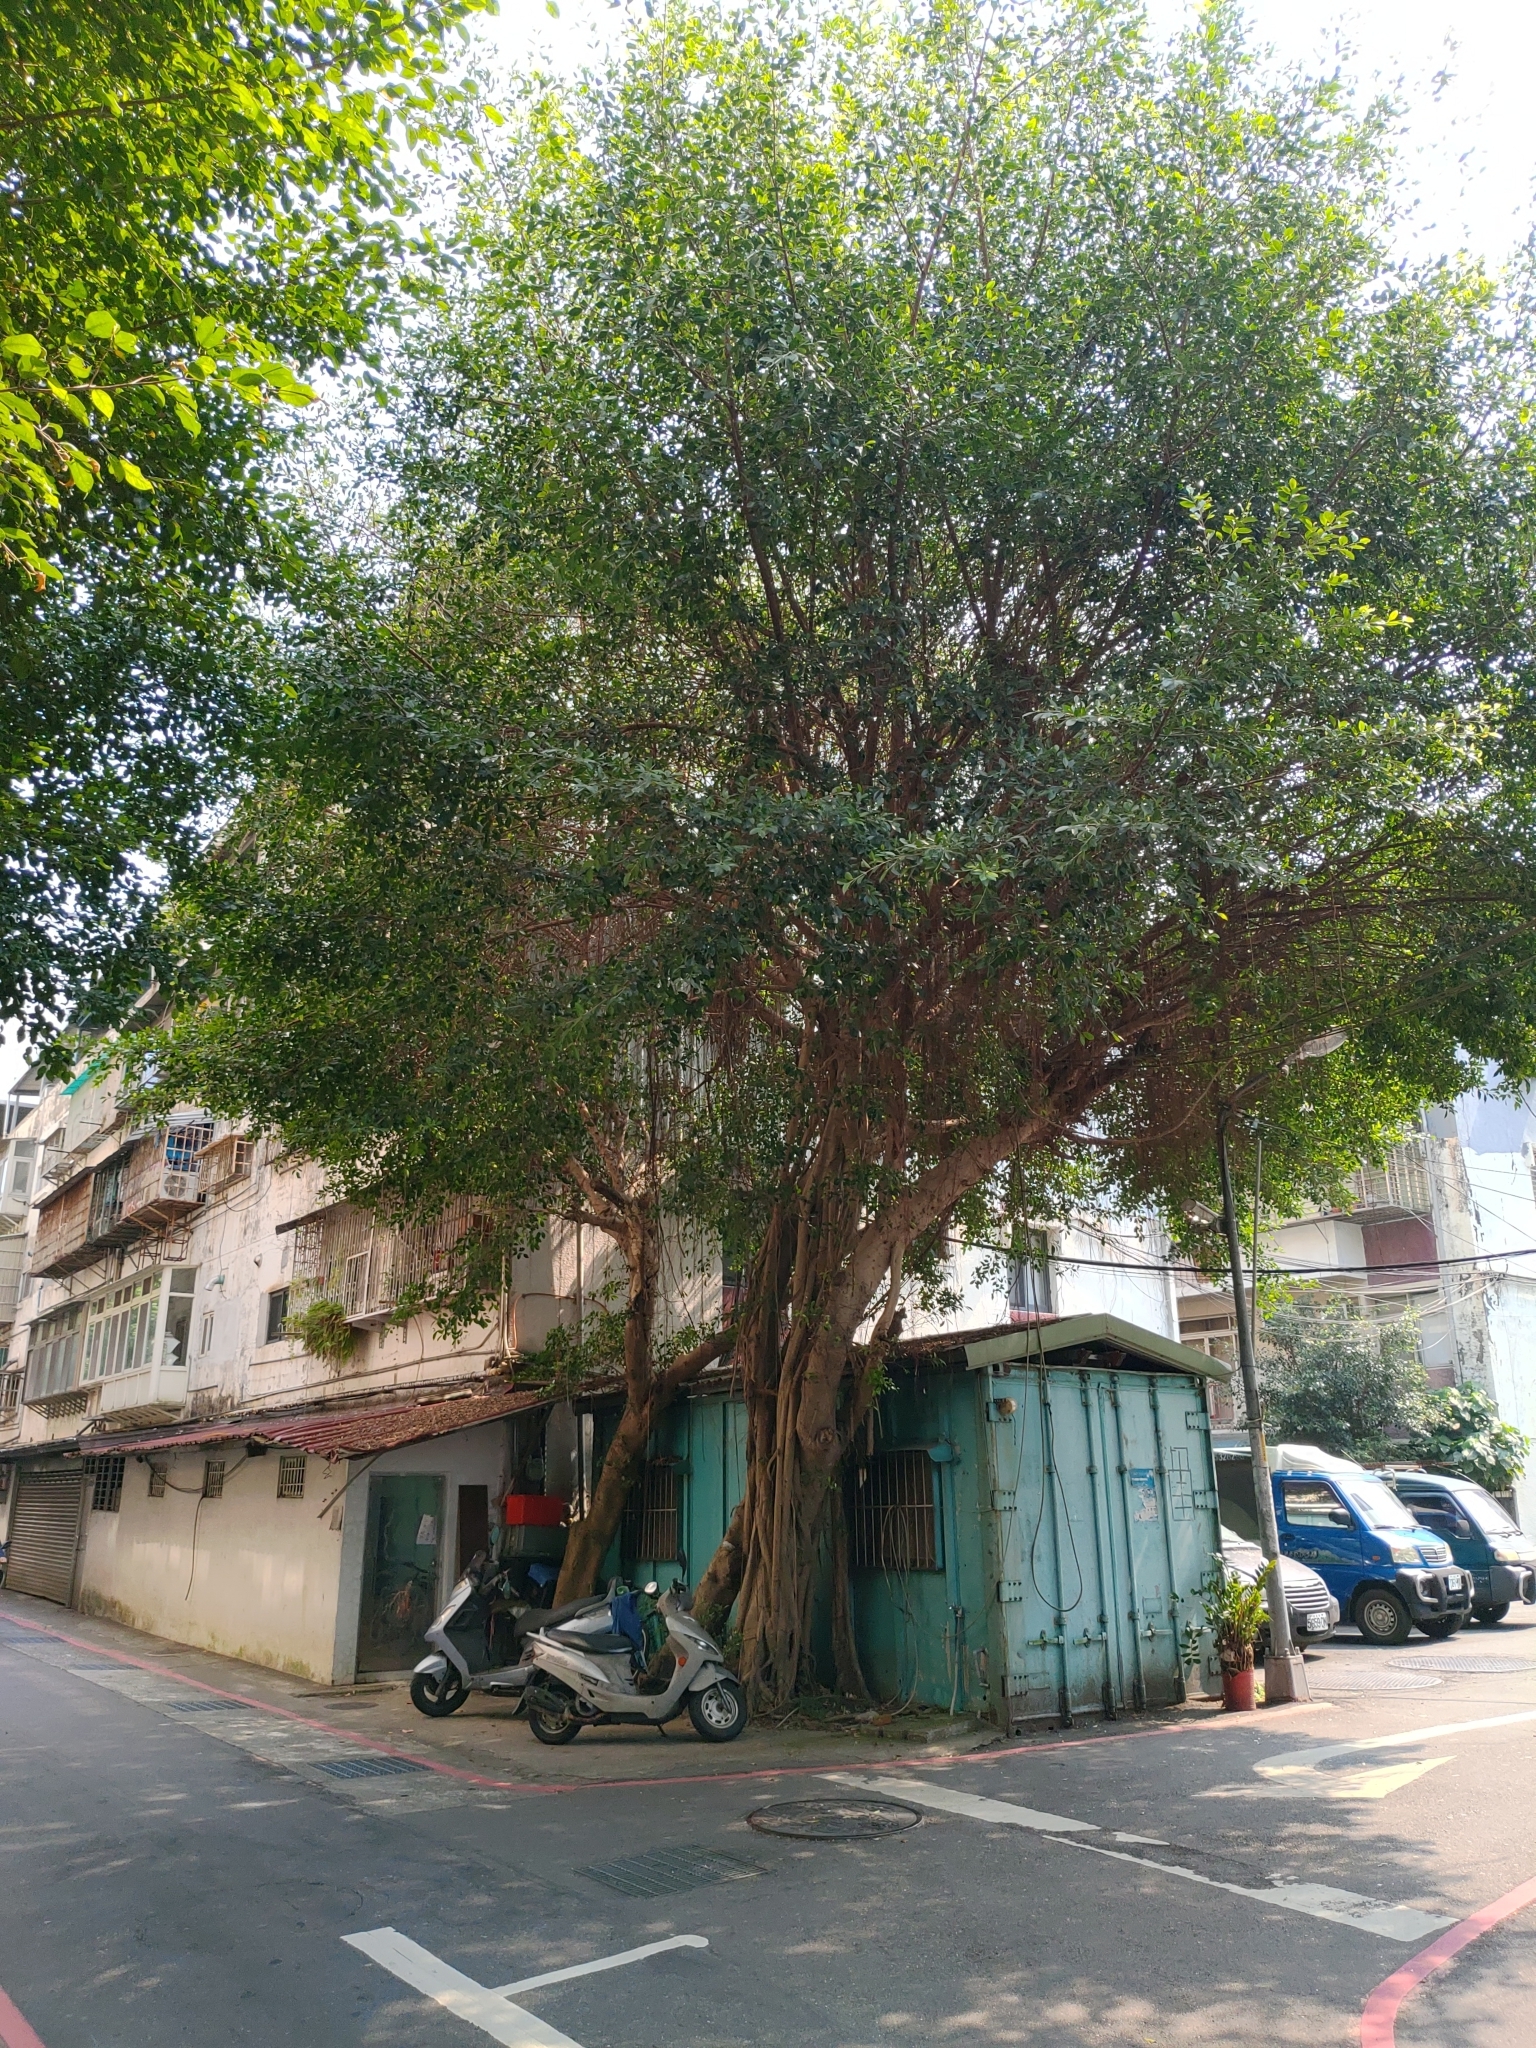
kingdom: Plantae
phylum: Tracheophyta
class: Magnoliopsida
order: Rosales
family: Moraceae
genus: Ficus
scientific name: Ficus microcarpa
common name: Chinese banyan
